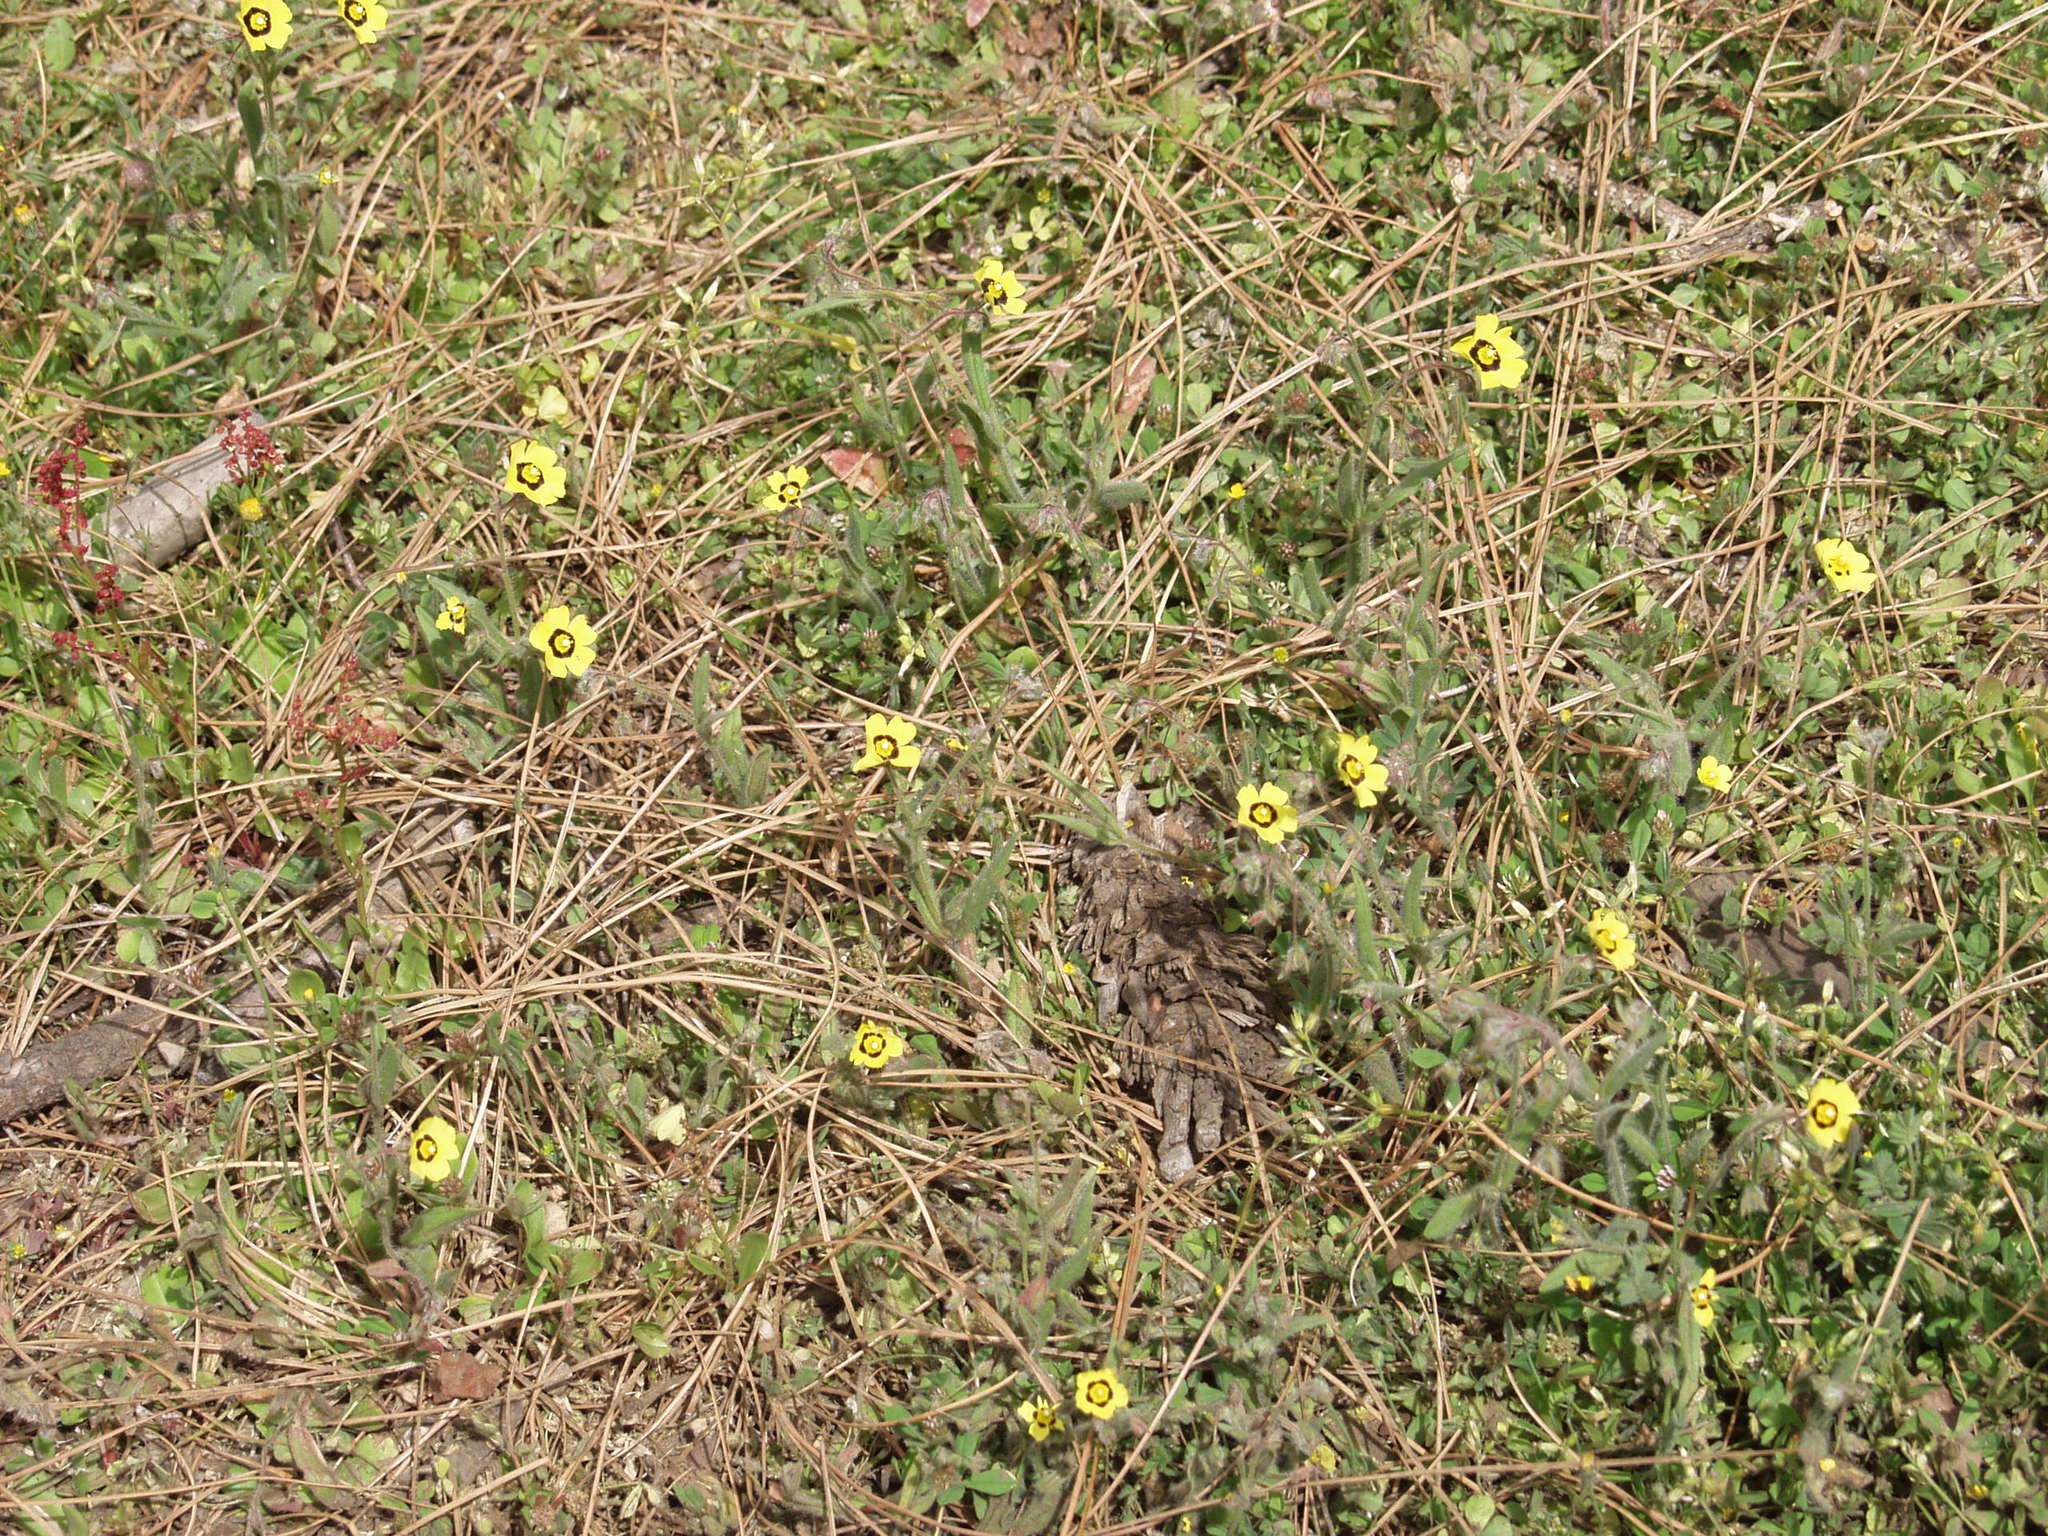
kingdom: Plantae
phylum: Tracheophyta
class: Magnoliopsida
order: Malvales
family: Cistaceae
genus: Tuberaria
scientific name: Tuberaria guttata
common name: Spotted rock-rose
